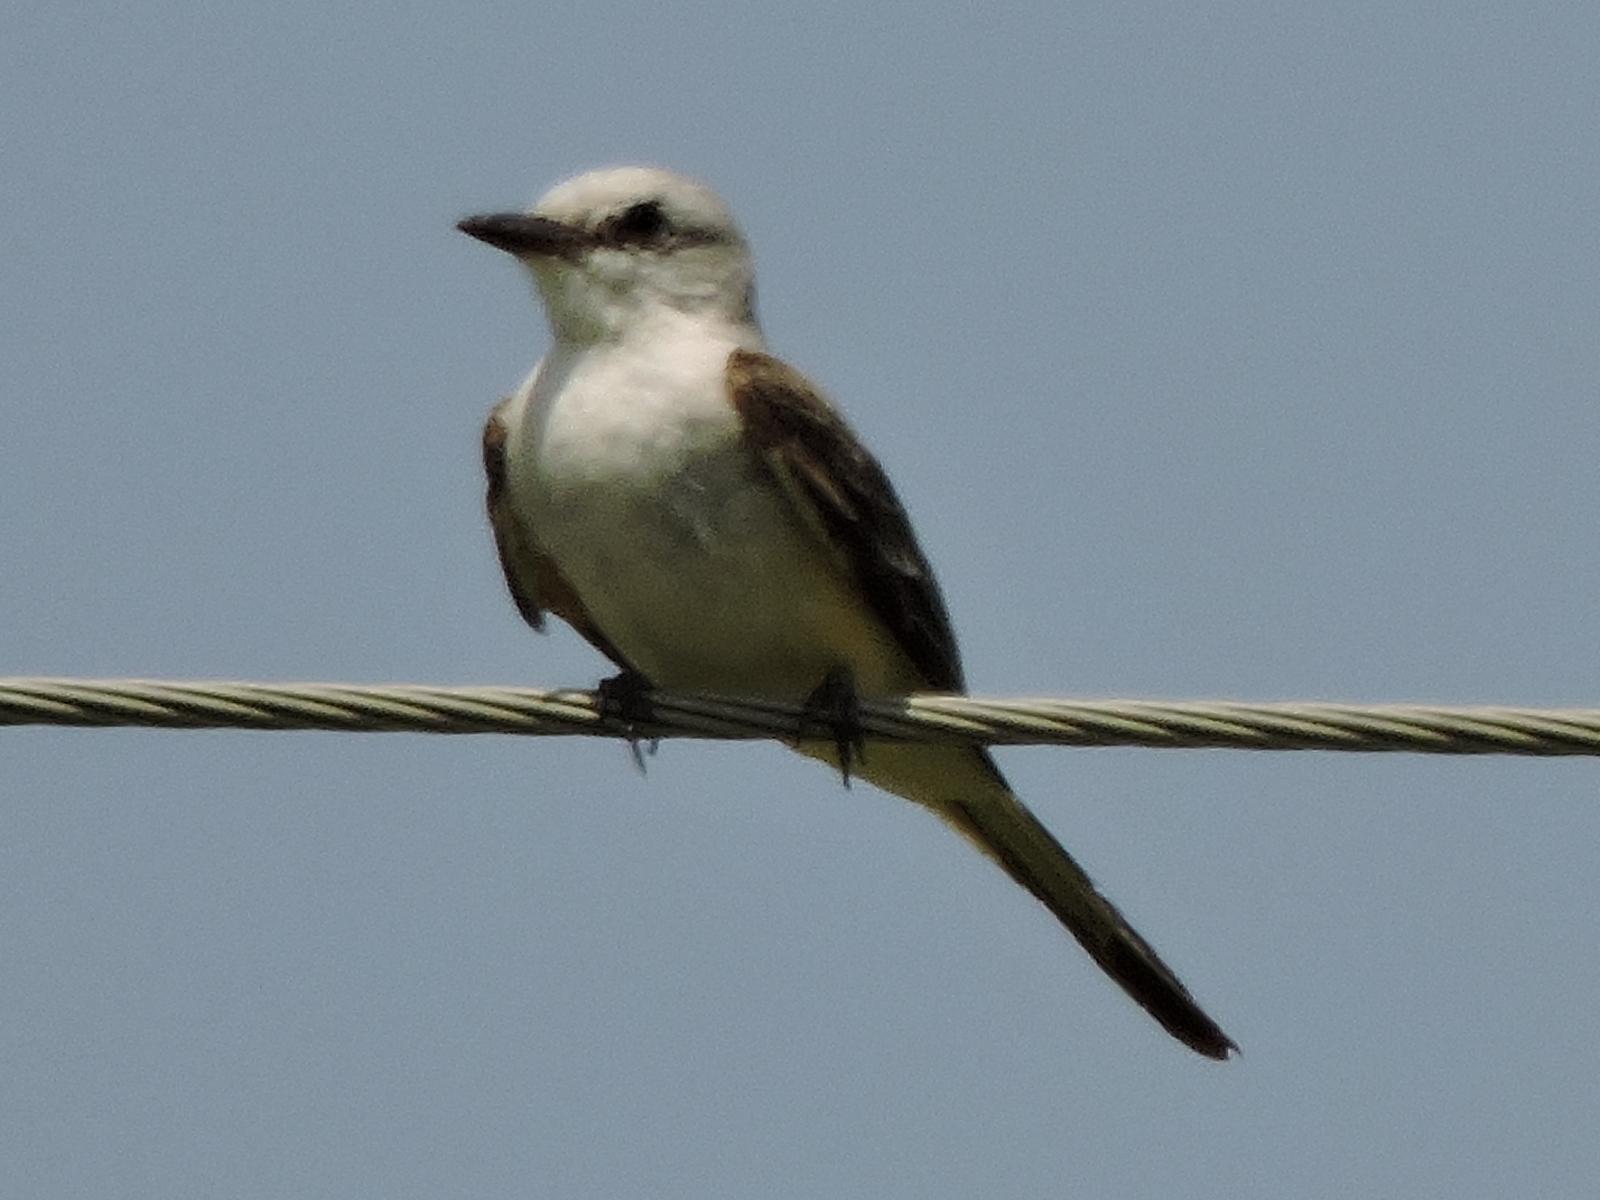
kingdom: Animalia
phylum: Chordata
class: Aves
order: Passeriformes
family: Tyrannidae
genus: Tyrannus
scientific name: Tyrannus forficatus
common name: Scissor-tailed flycatcher
